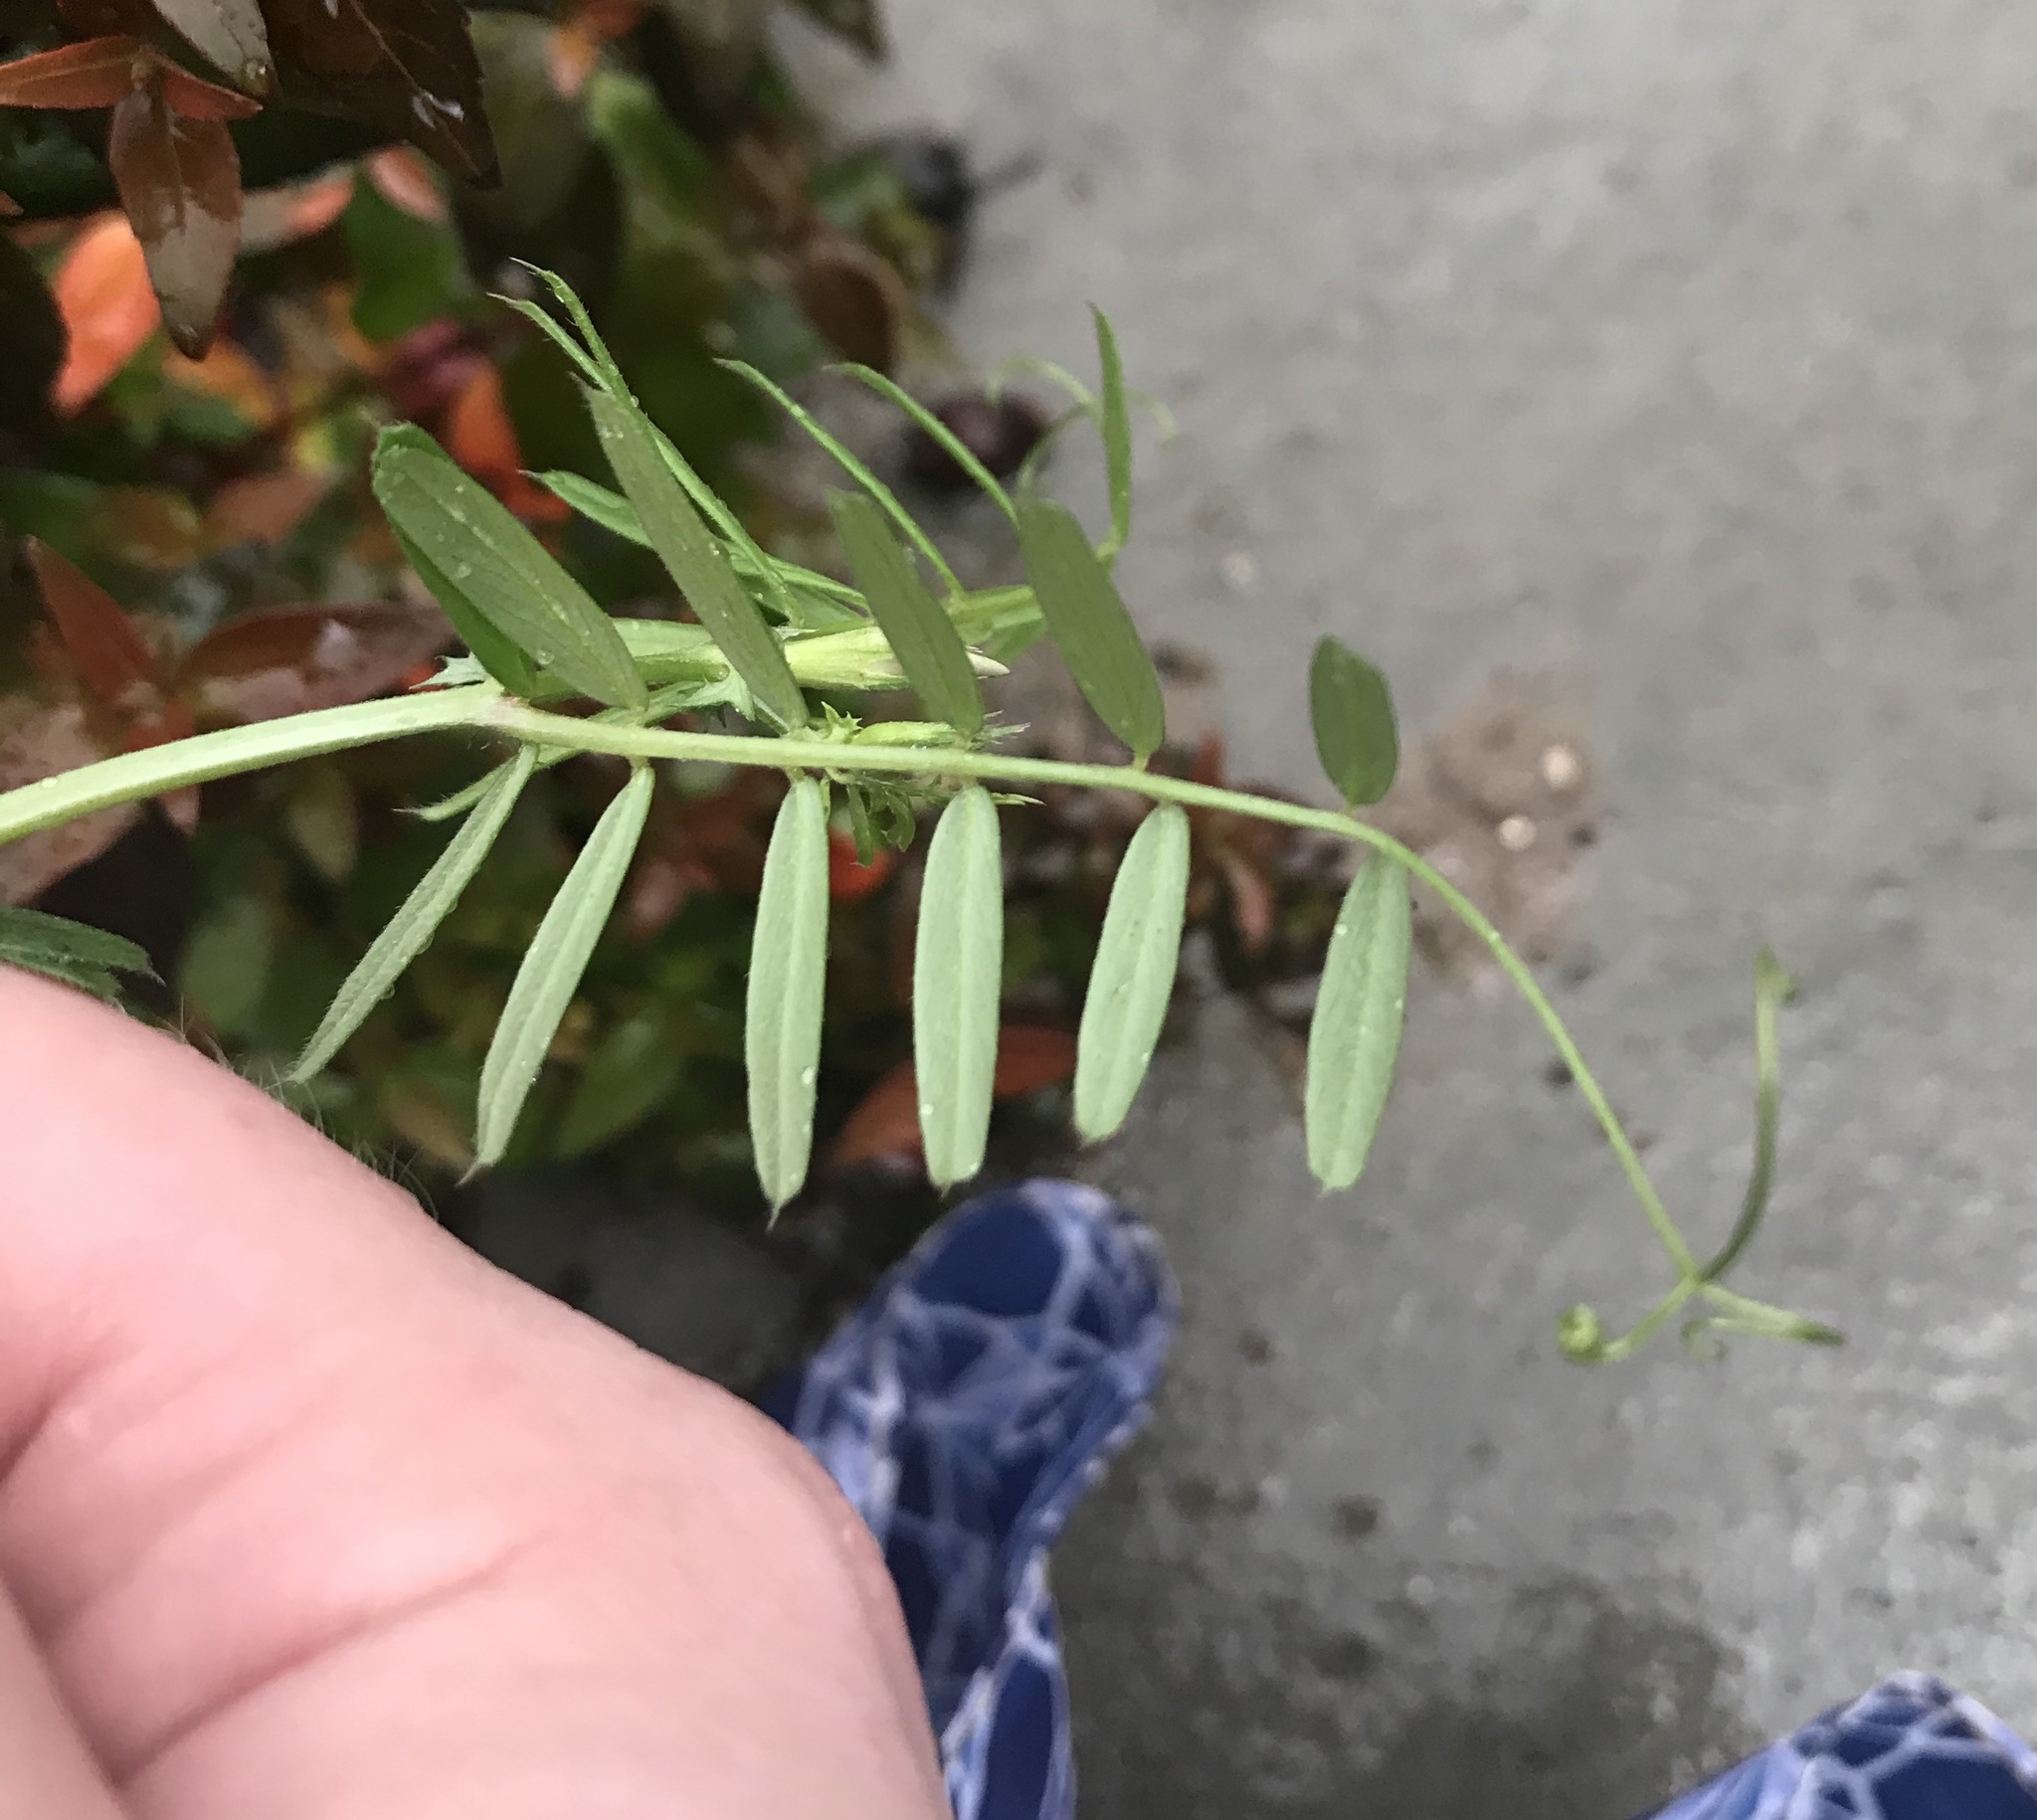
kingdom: Plantae
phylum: Tracheophyta
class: Magnoliopsida
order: Fabales
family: Fabaceae
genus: Vicia
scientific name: Vicia sativa
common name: Garden vetch
